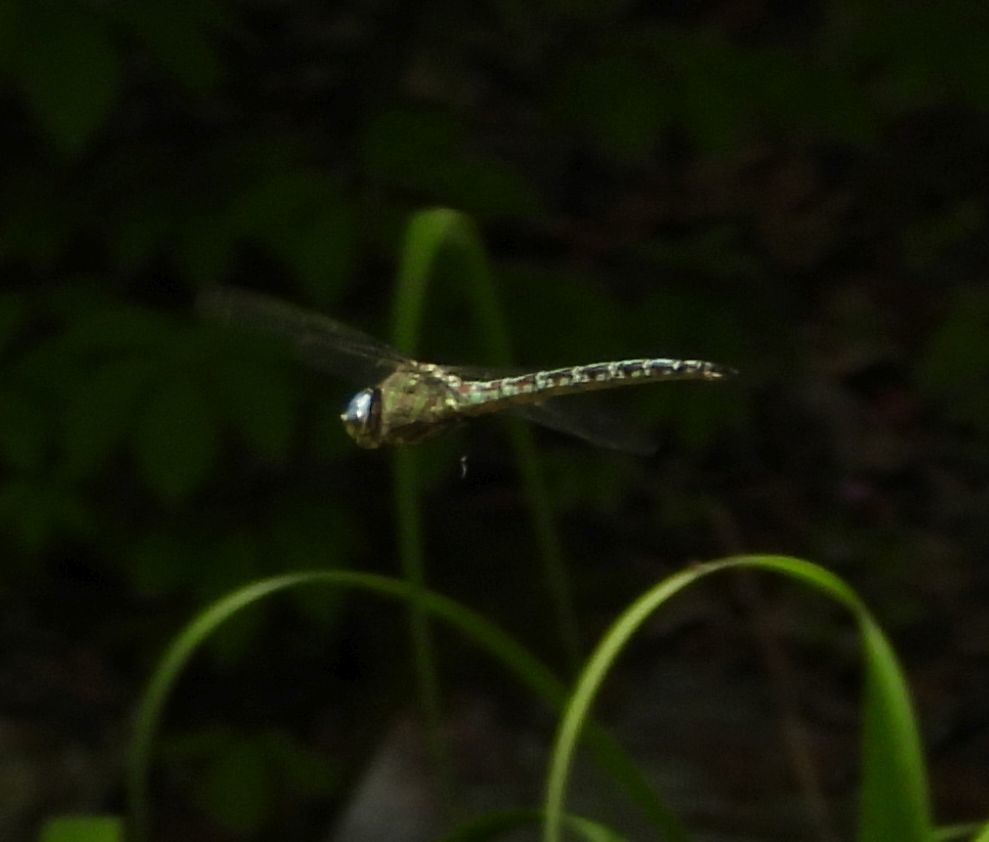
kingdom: Animalia
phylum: Arthropoda
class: Insecta
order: Odonata
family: Aeshnidae
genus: Nasiaeschna
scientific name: Nasiaeschna pentacantha
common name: Cyrano darner
